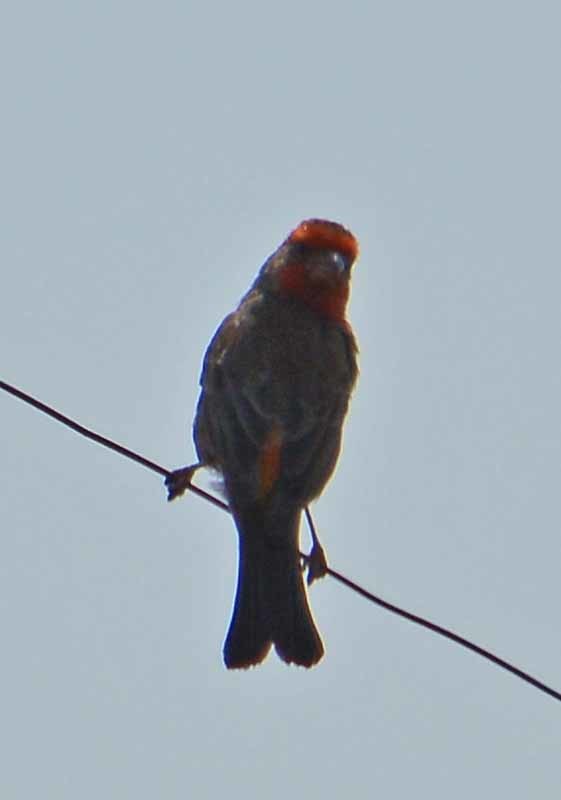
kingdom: Animalia
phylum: Chordata
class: Aves
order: Passeriformes
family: Fringillidae
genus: Haemorhous
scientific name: Haemorhous mexicanus
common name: House finch
